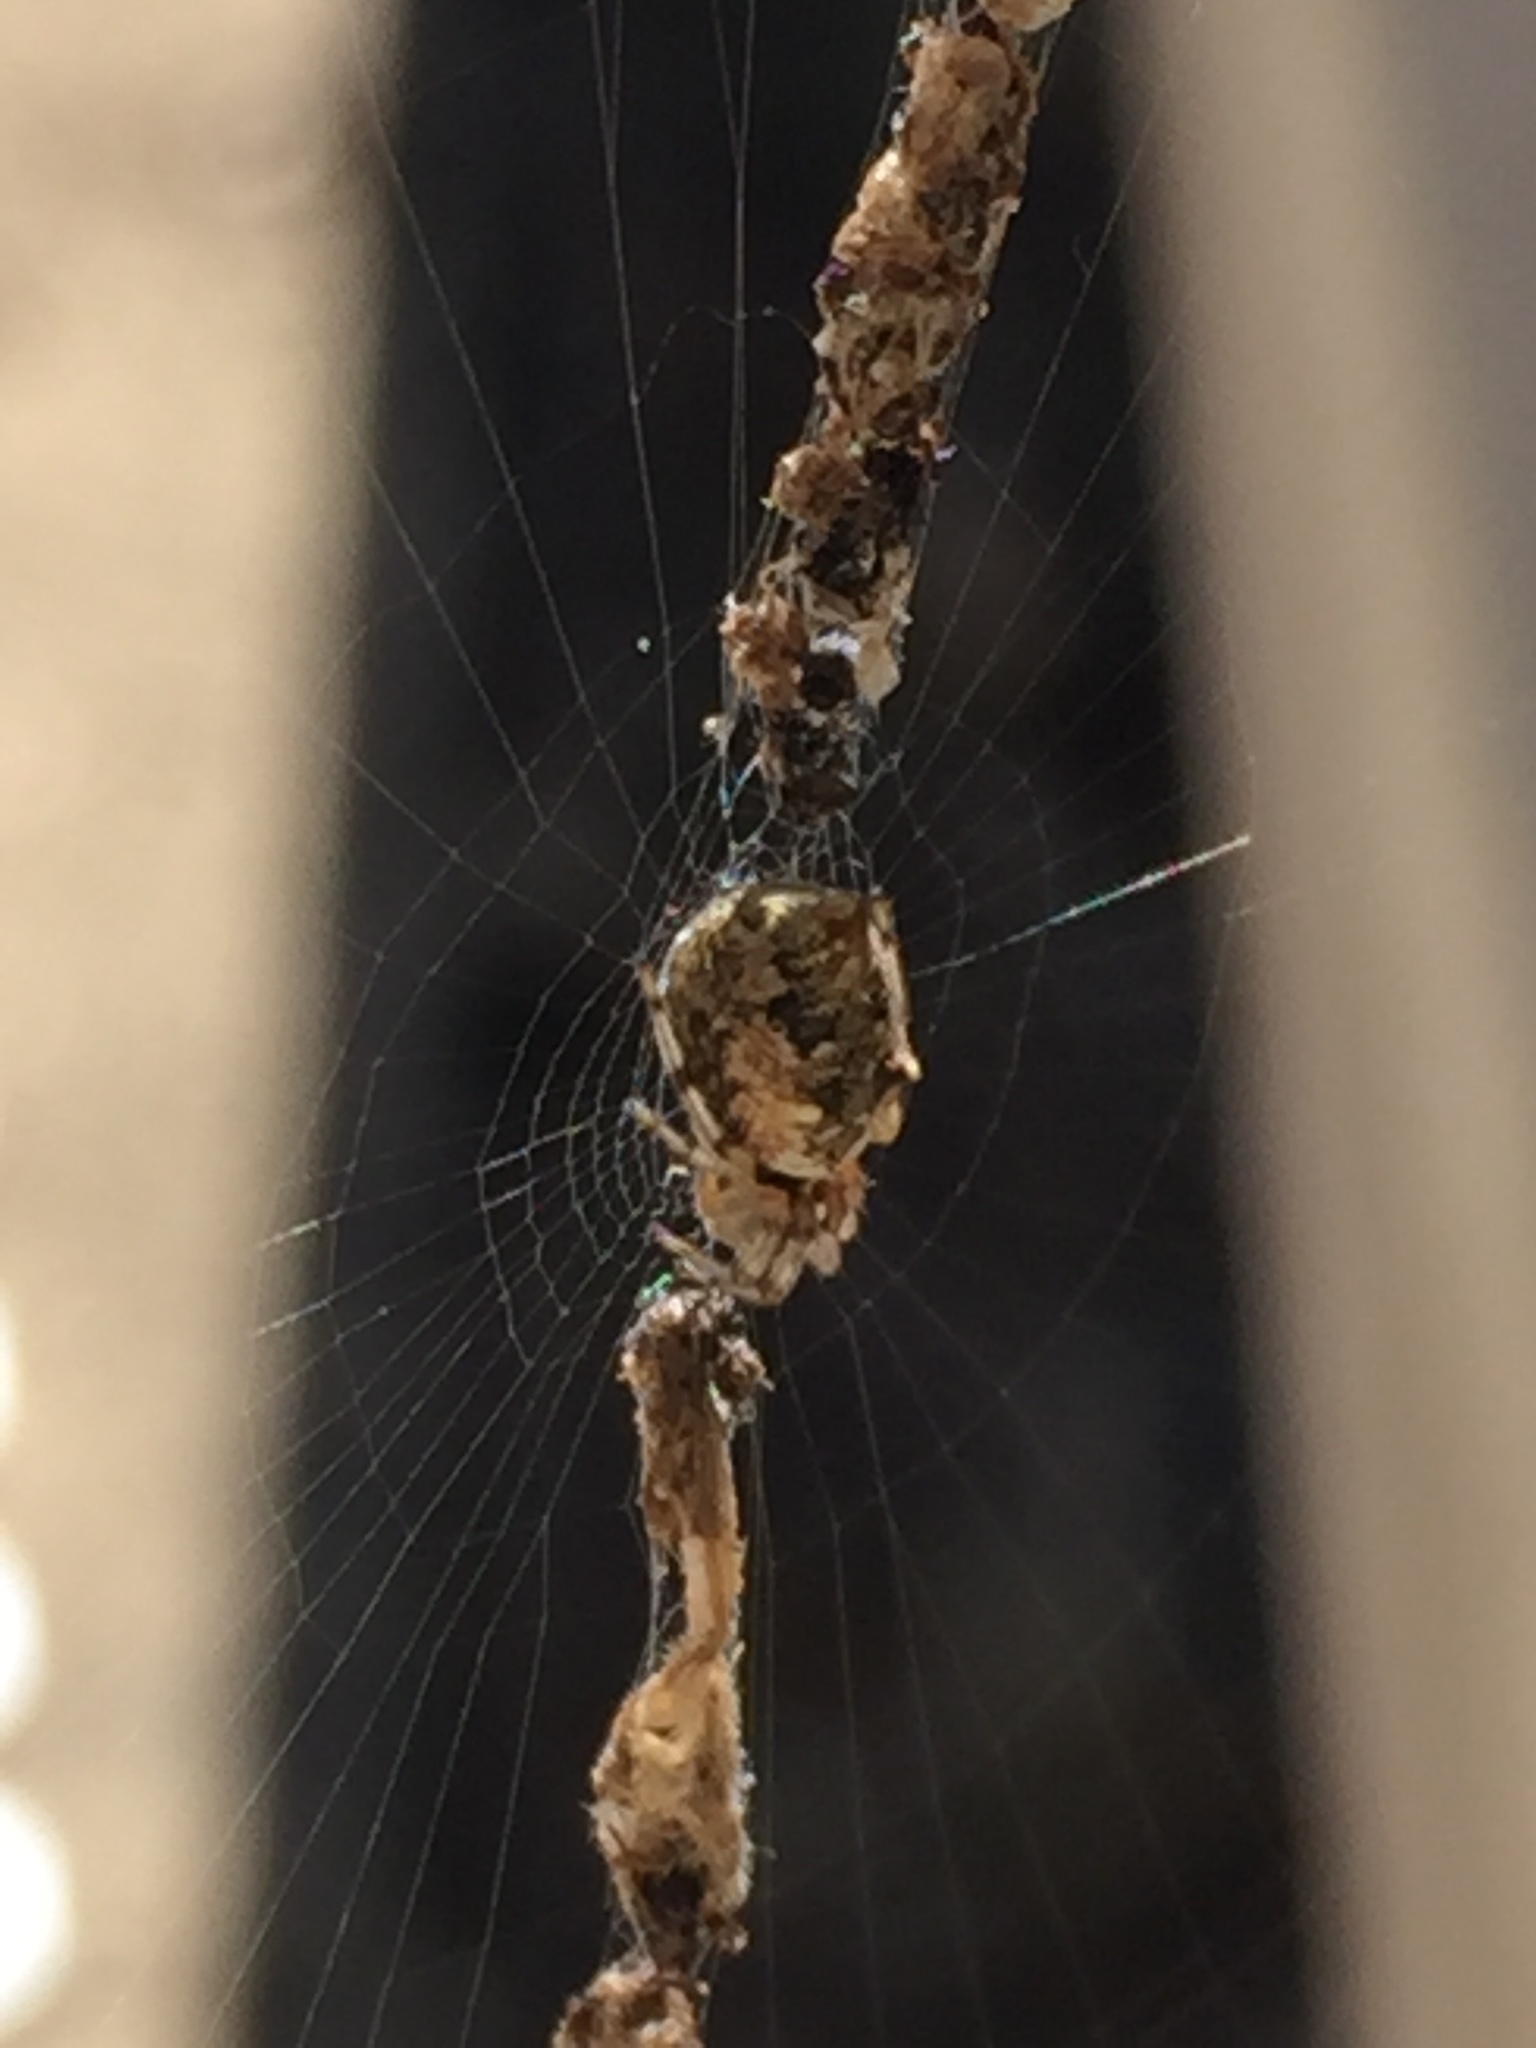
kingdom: Animalia
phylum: Arthropoda
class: Arachnida
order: Araneae
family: Araneidae
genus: Cyclosa
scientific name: Cyclosa turbinata
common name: Orb weavers
